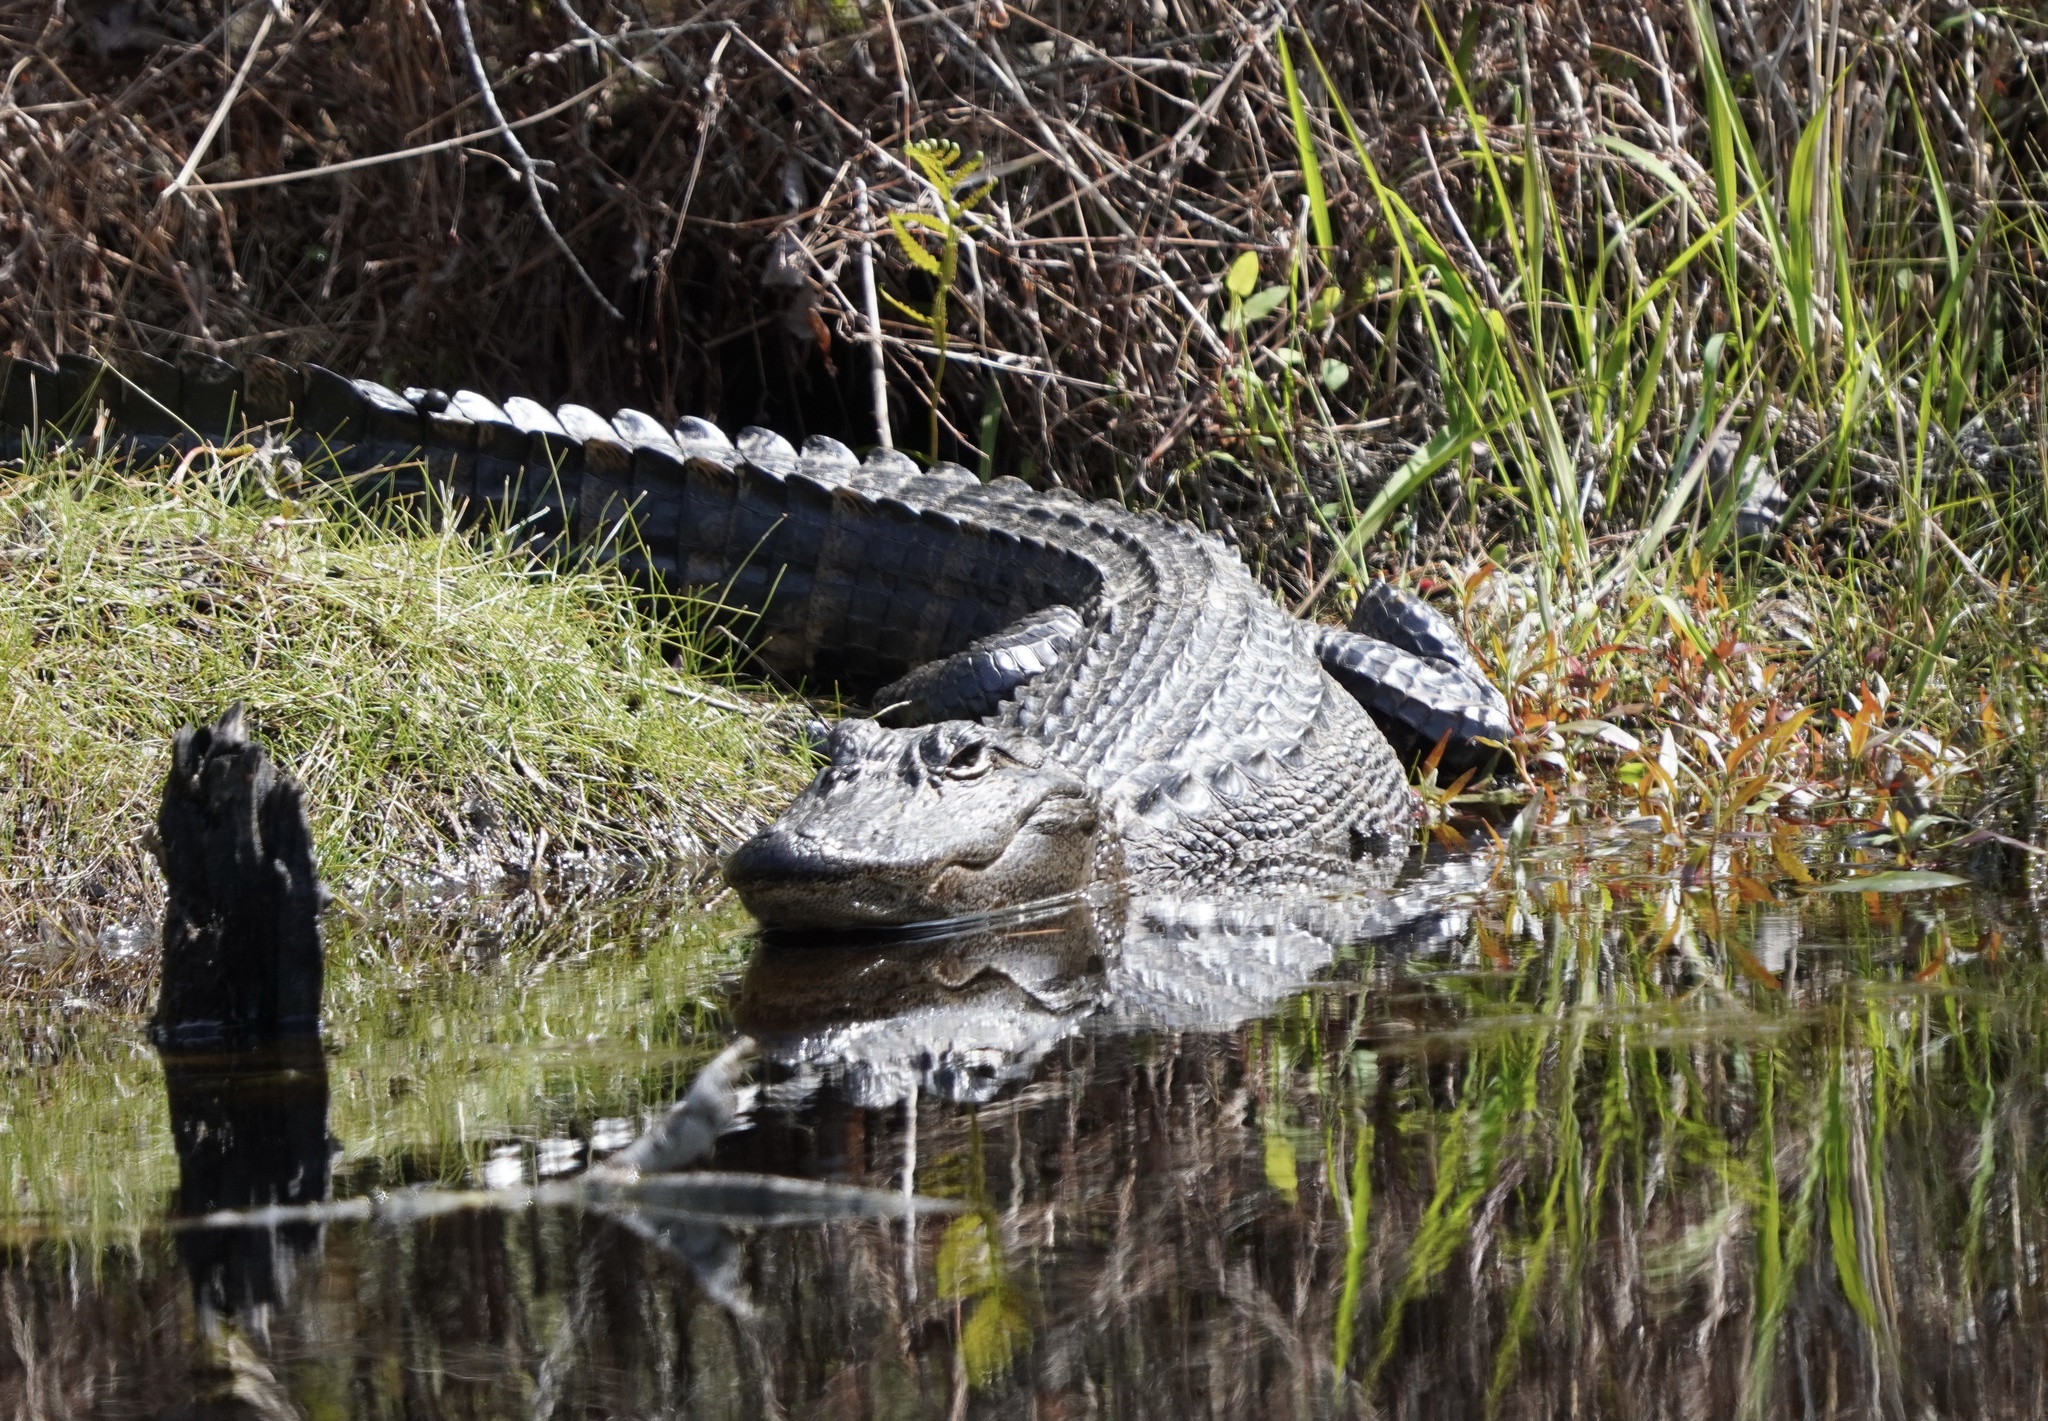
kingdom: Animalia
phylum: Chordata
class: Crocodylia
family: Alligatoridae
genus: Alligator
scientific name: Alligator mississippiensis
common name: American alligator
